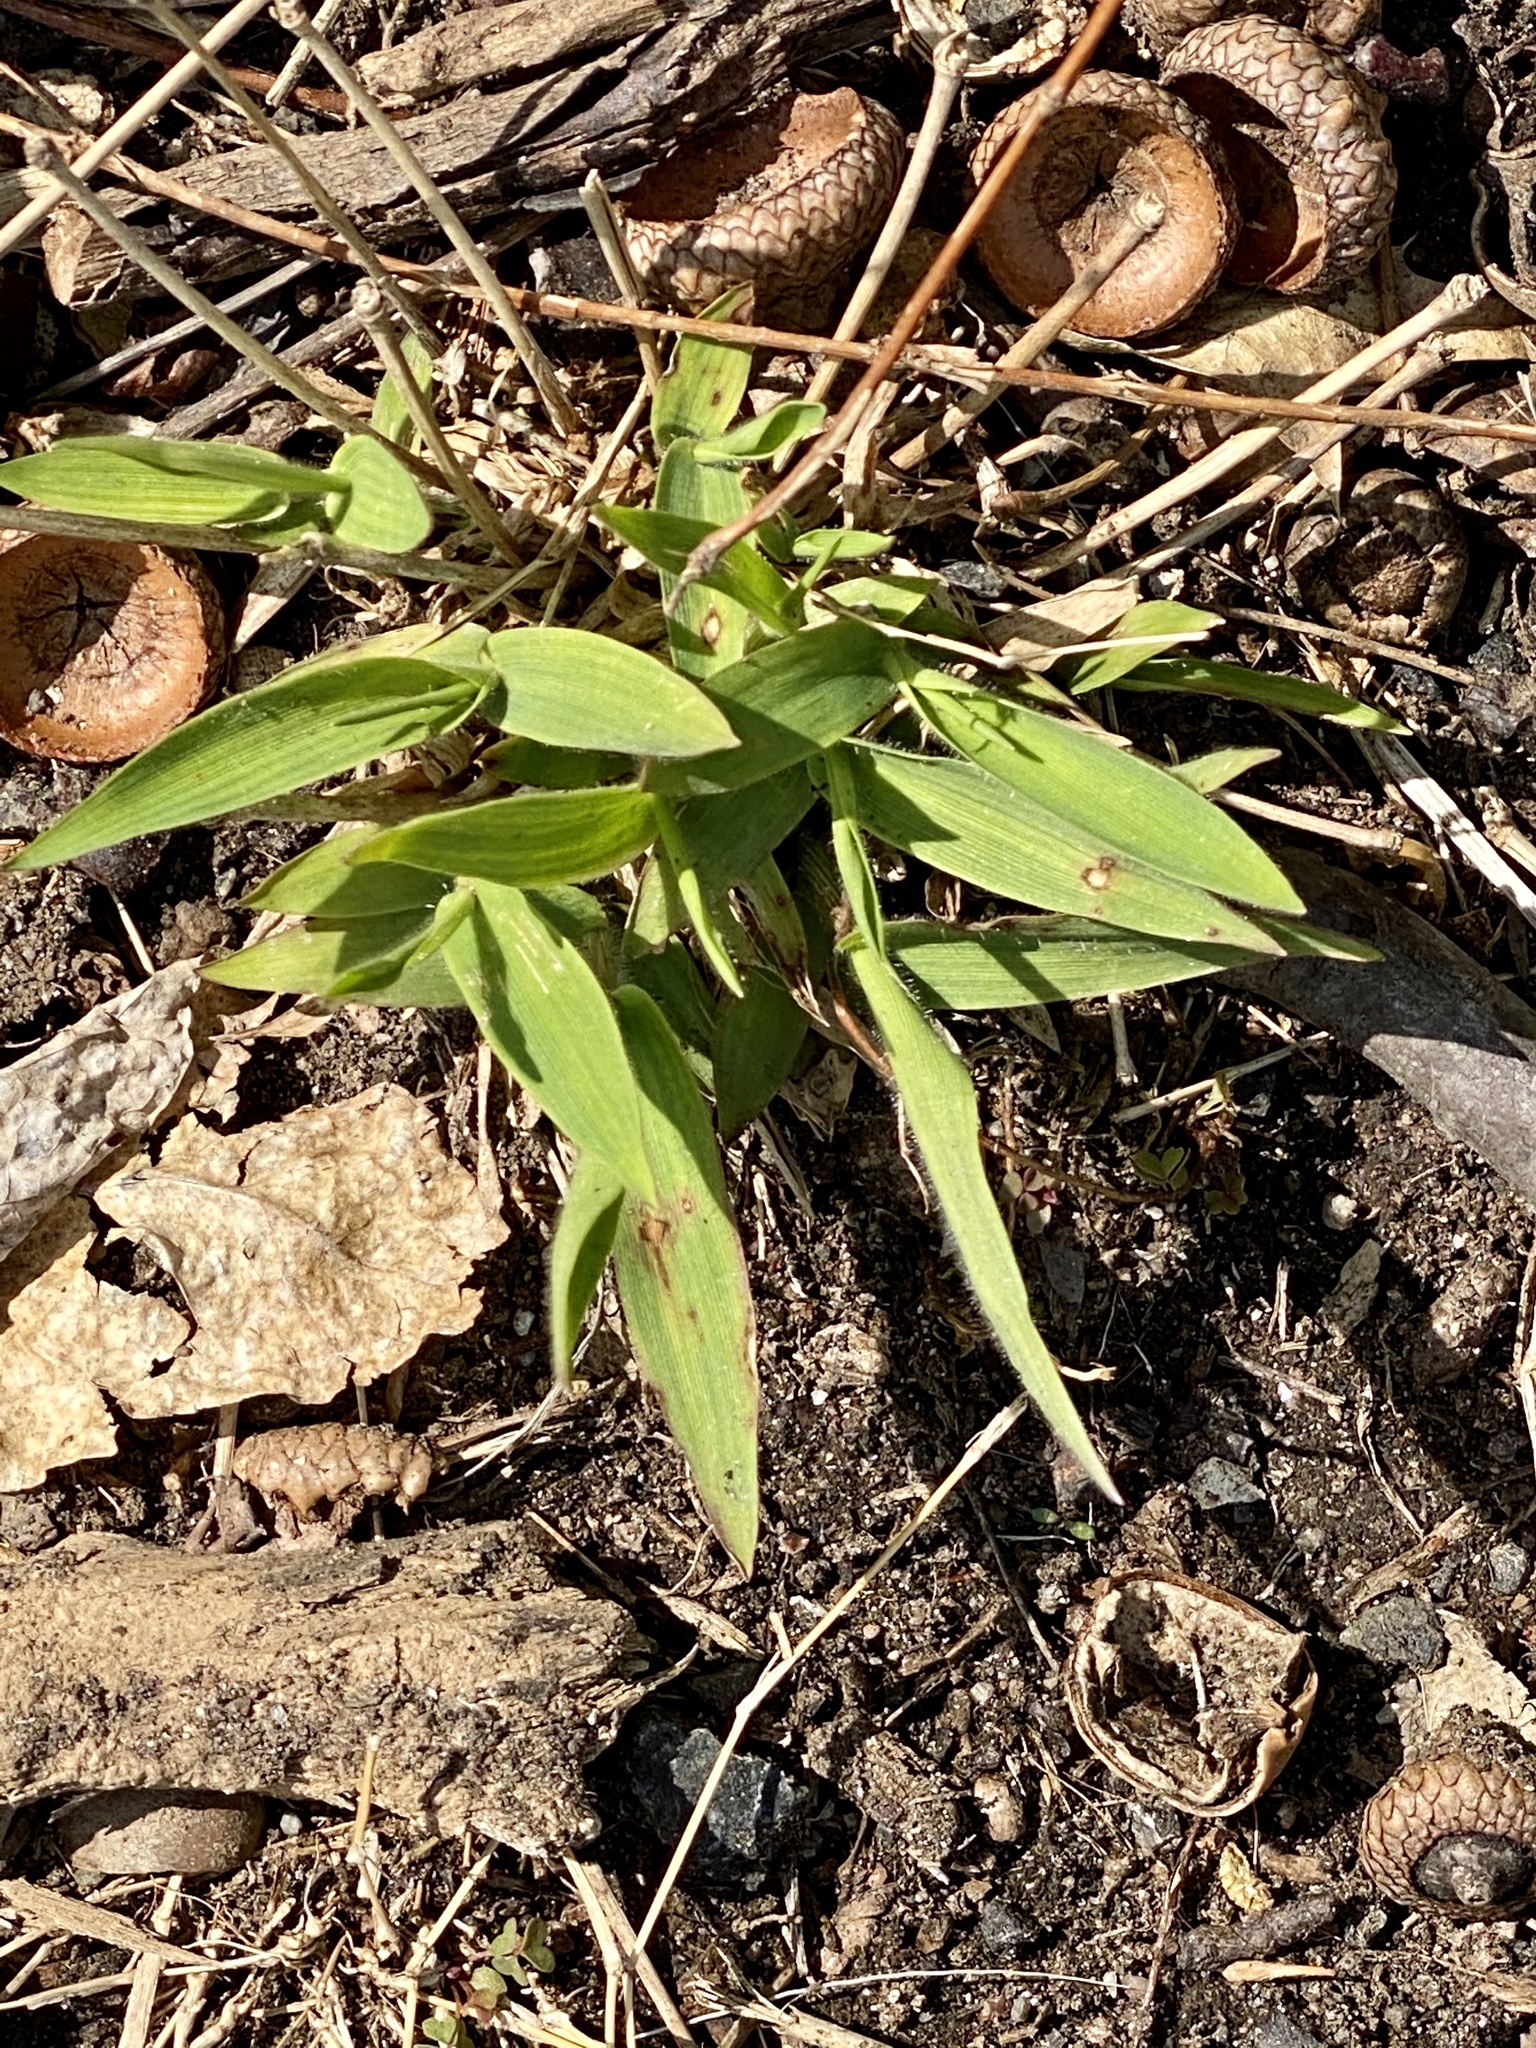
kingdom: Plantae
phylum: Tracheophyta
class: Liliopsida
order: Poales
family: Poaceae
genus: Dichanthelium
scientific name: Dichanthelium clandestinum
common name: Deer-tongue grass
